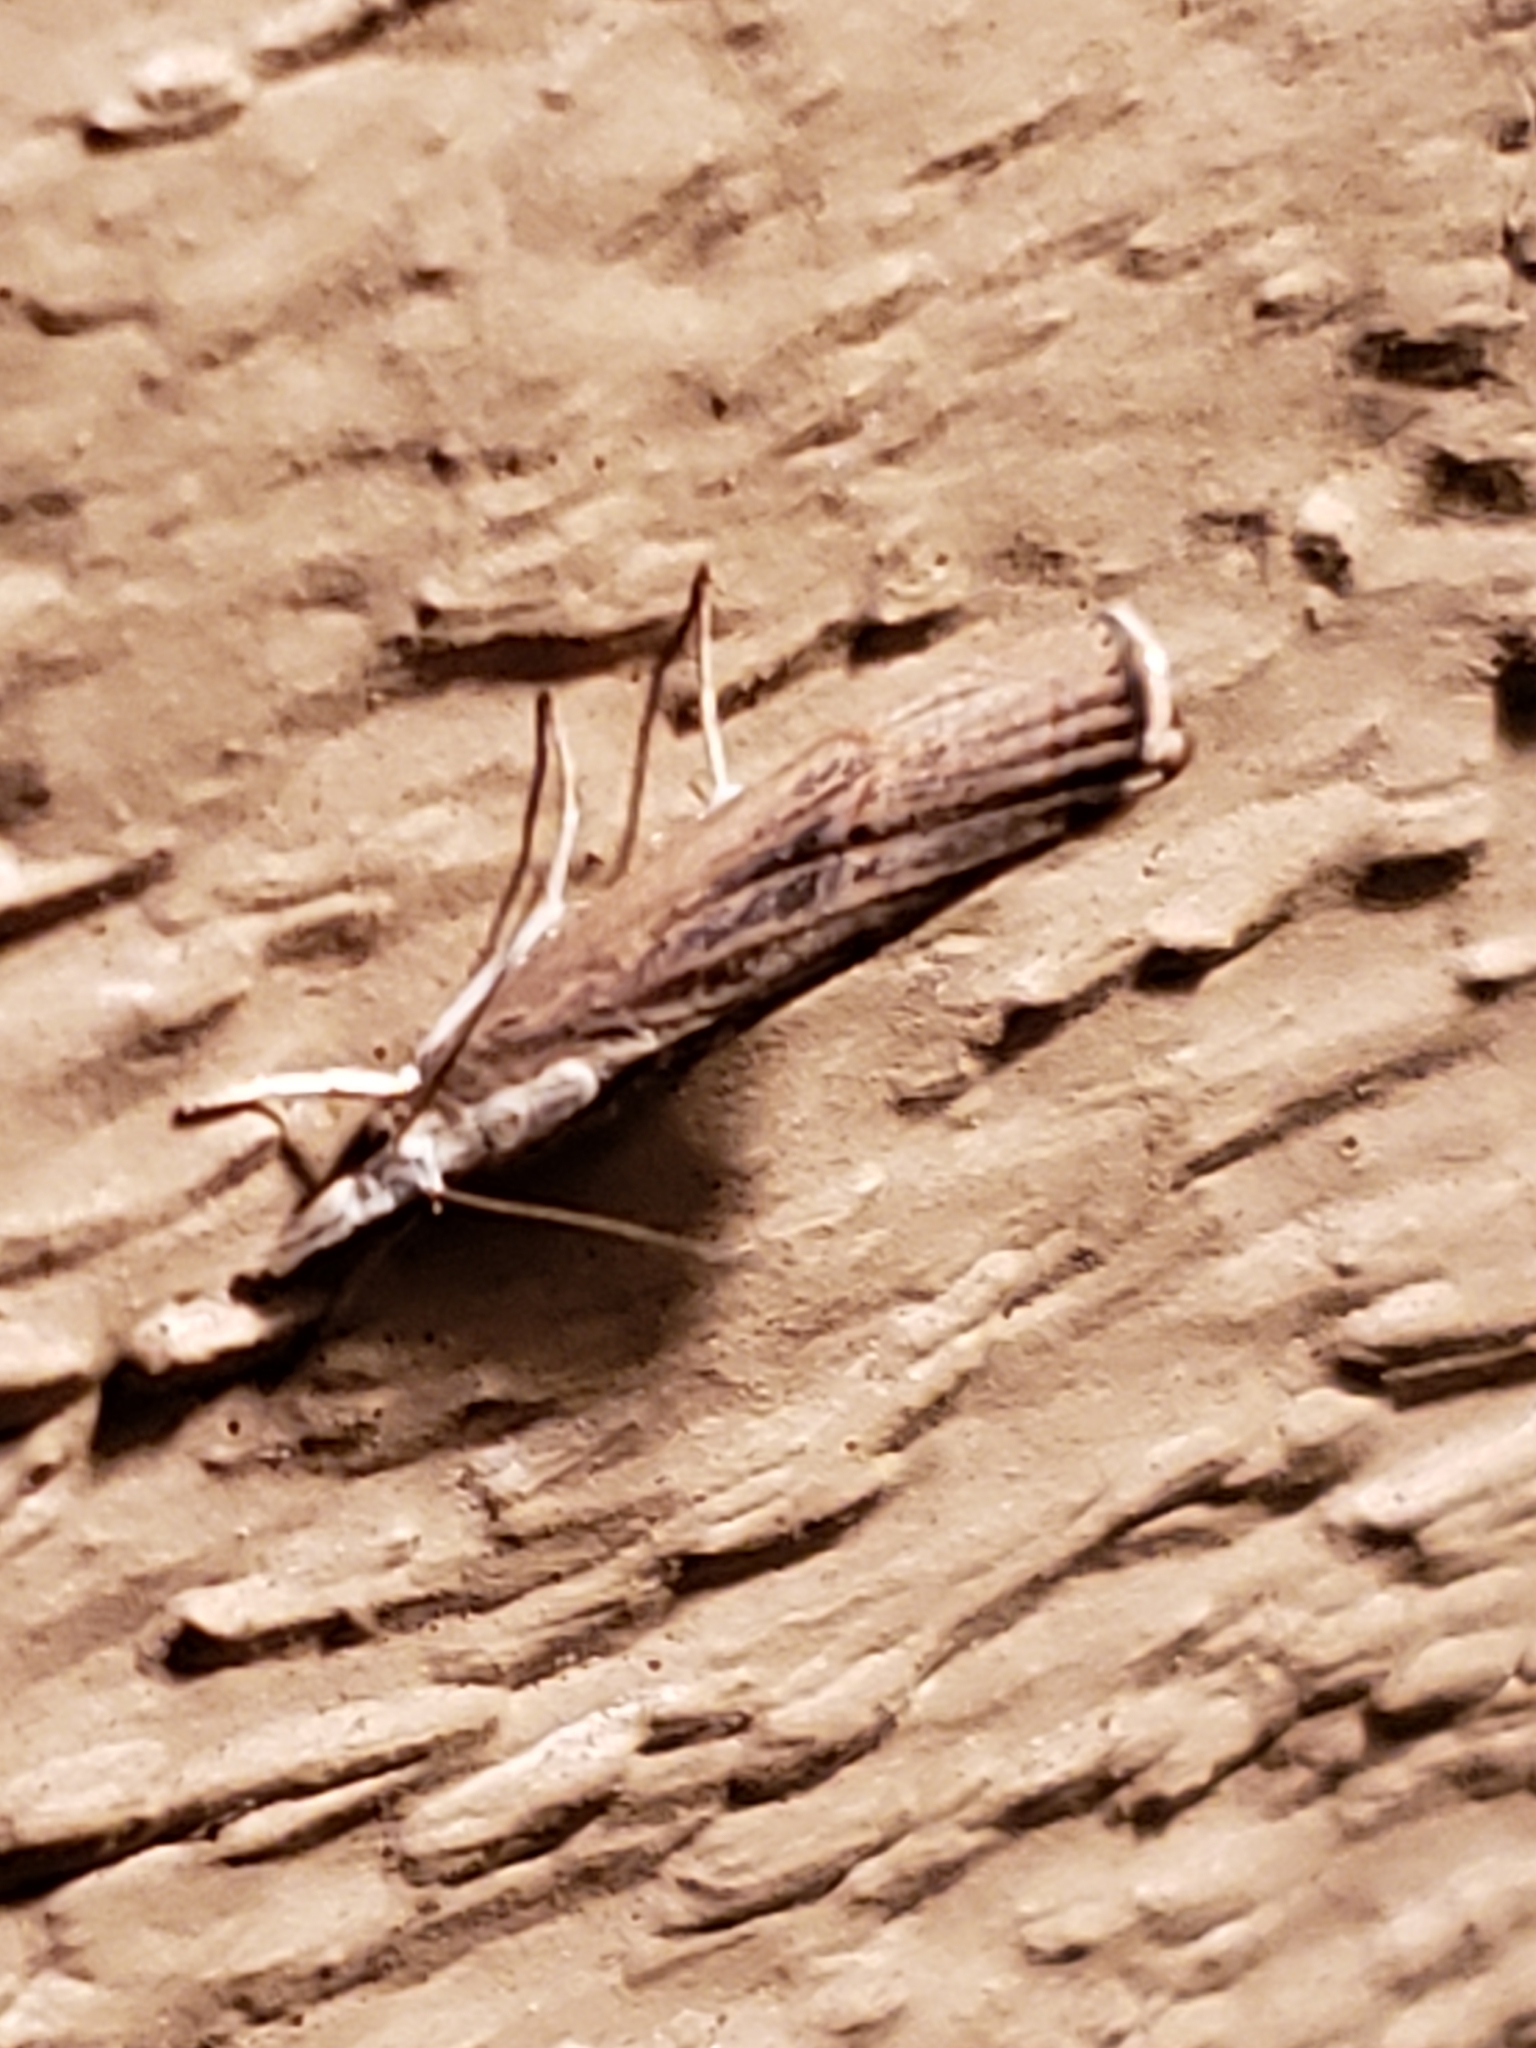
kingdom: Animalia
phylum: Arthropoda
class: Insecta
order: Lepidoptera
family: Crambidae
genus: Parapediasia
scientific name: Parapediasia teterellus
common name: Bluegrass webworm moth
